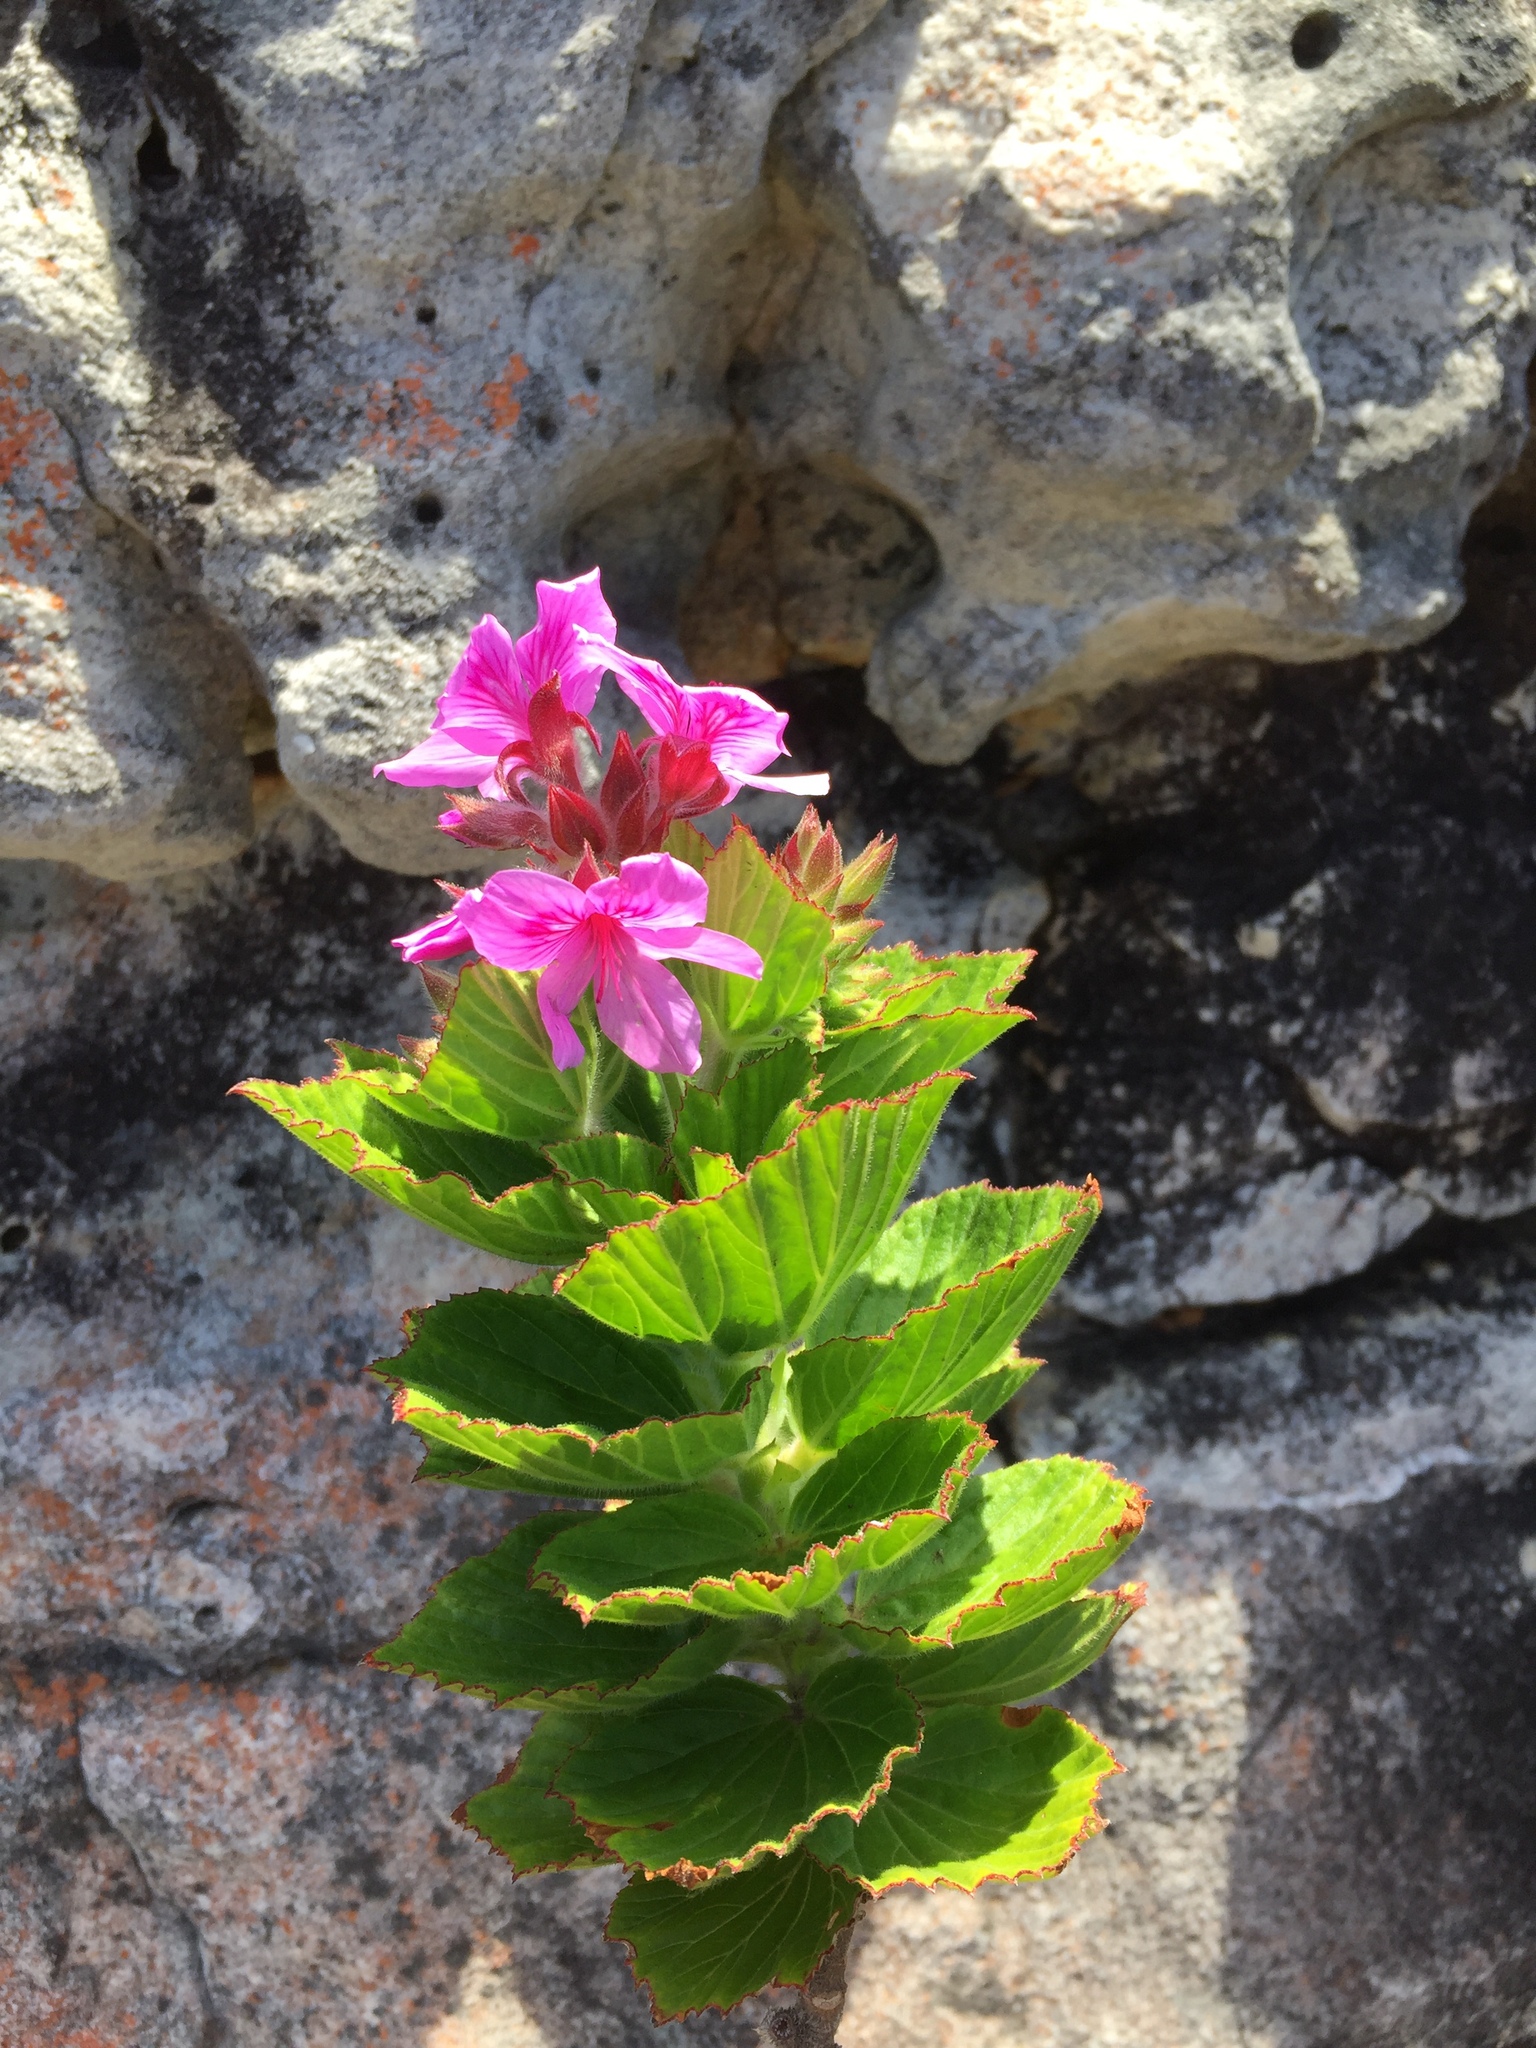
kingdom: Plantae
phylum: Tracheophyta
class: Magnoliopsida
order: Geraniales
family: Geraniaceae
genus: Pelargonium
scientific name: Pelargonium cucullatum
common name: Tree pelargonium
